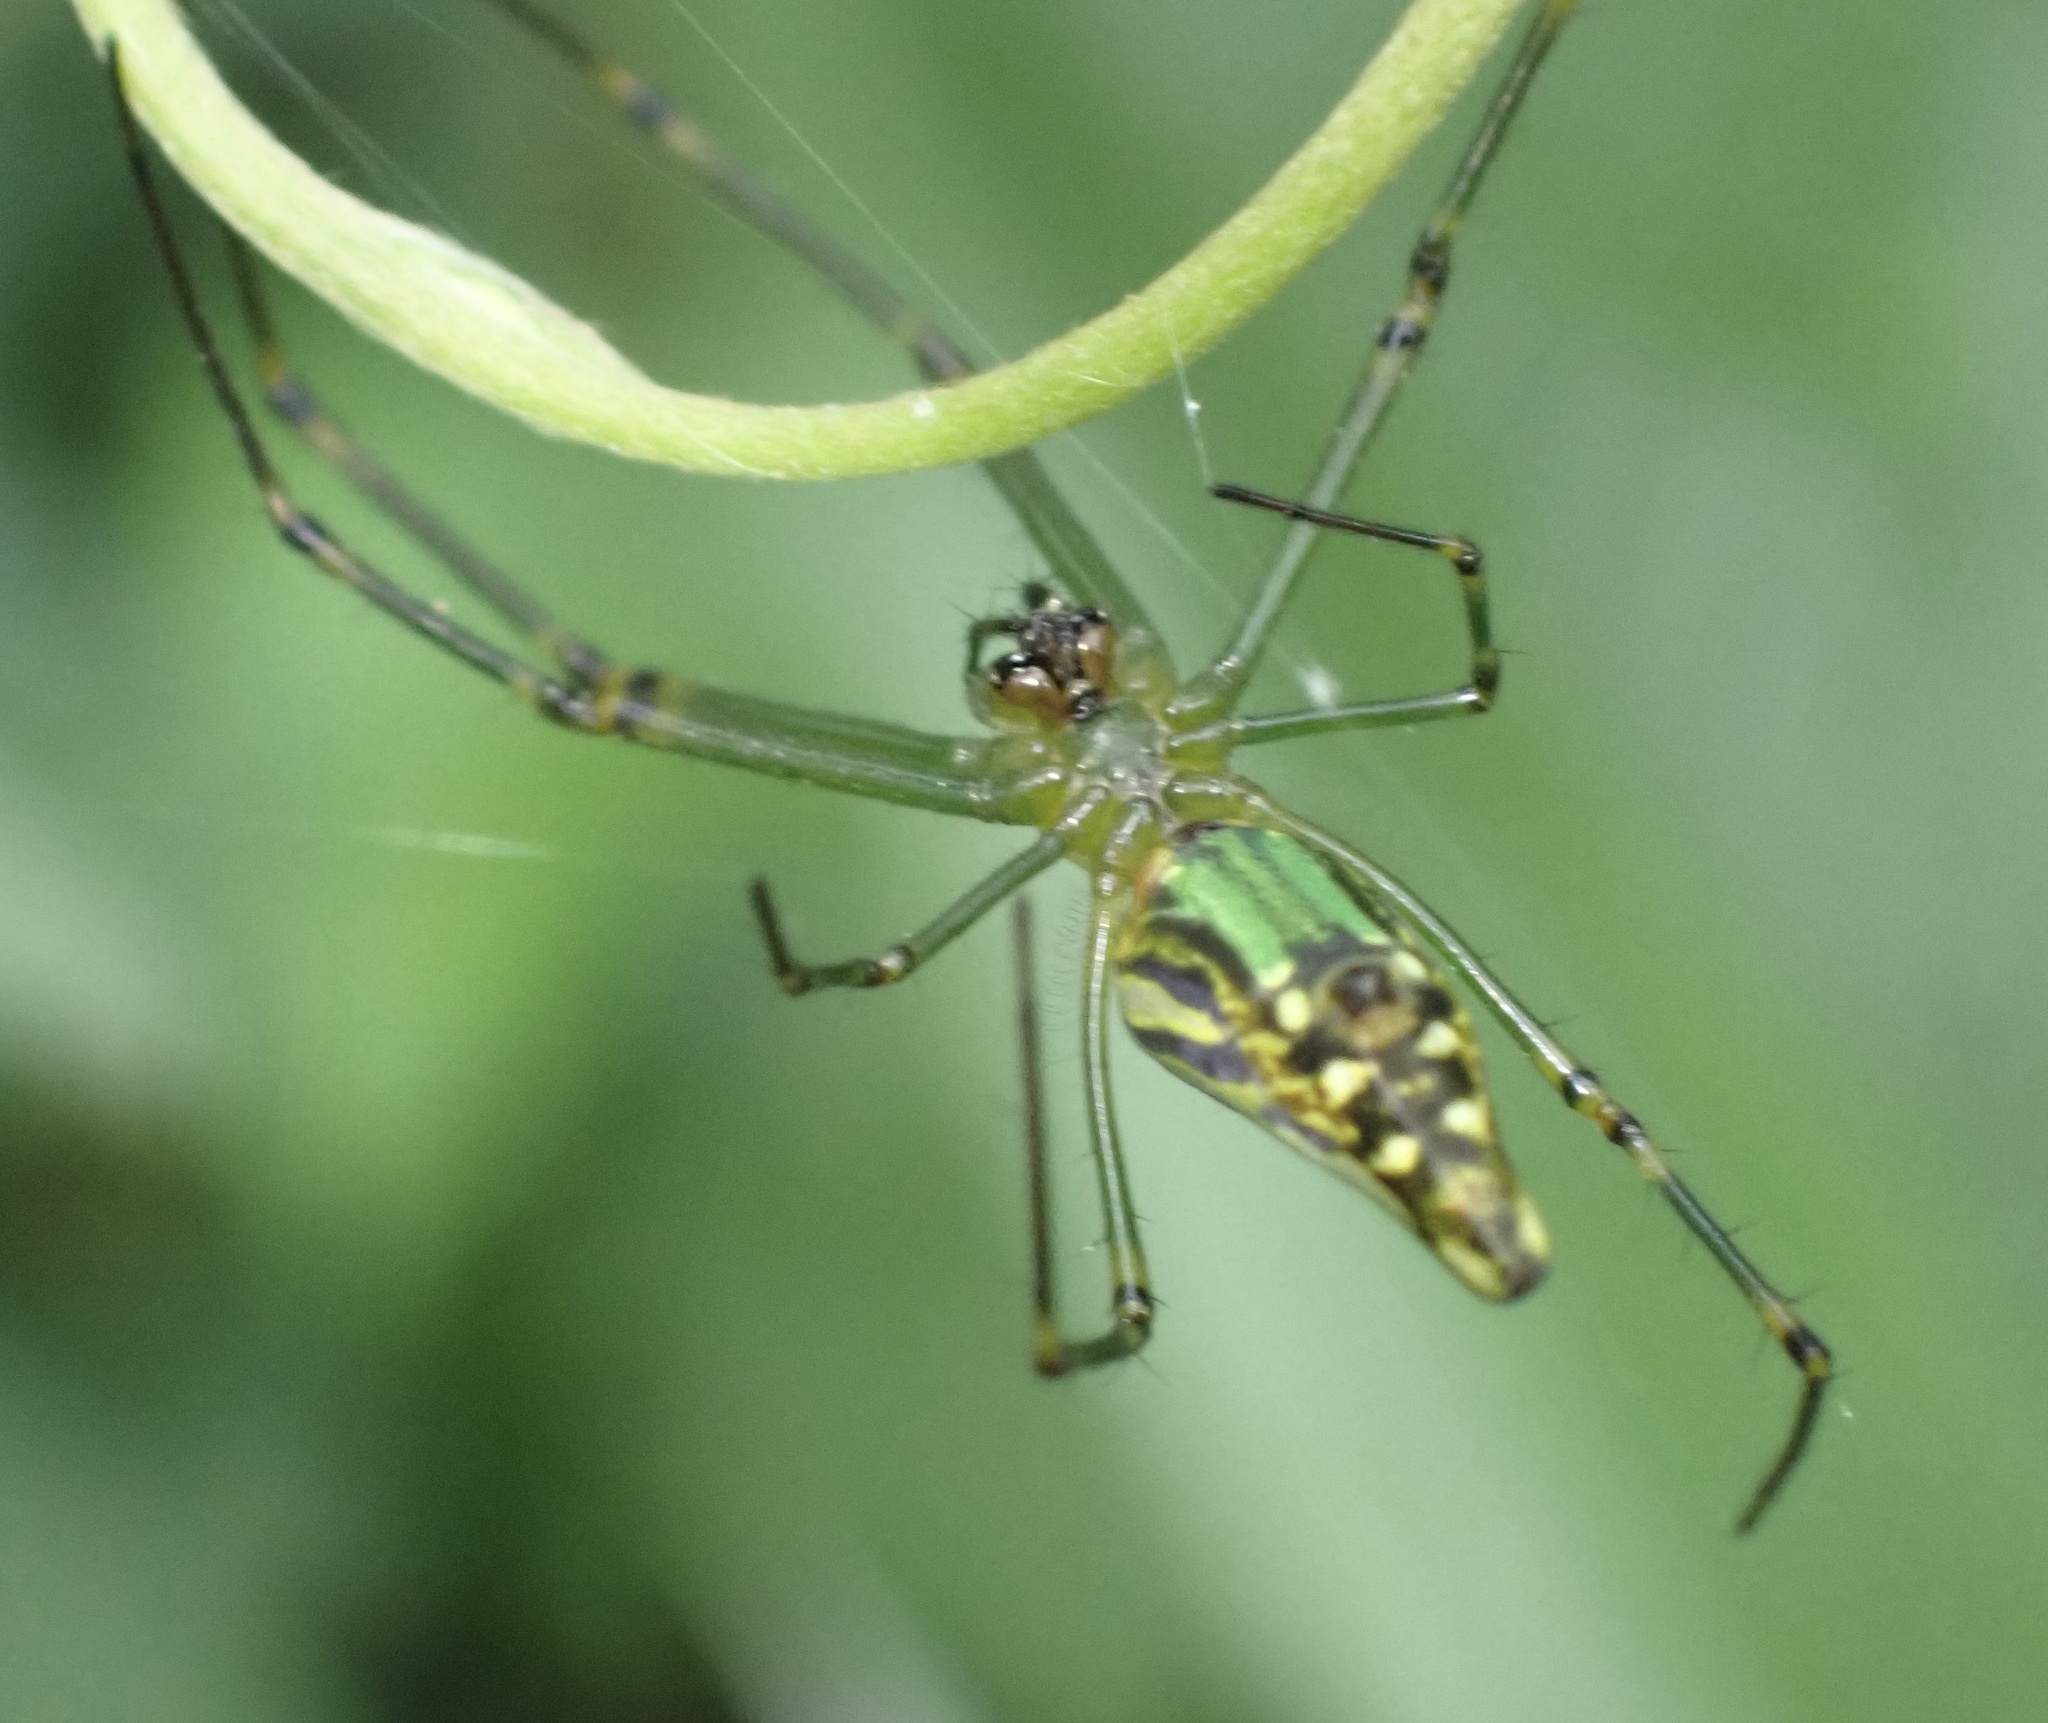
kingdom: Animalia
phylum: Arthropoda
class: Arachnida
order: Araneae
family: Tetragnathidae
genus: Leucauge
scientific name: Leucauge decorata
